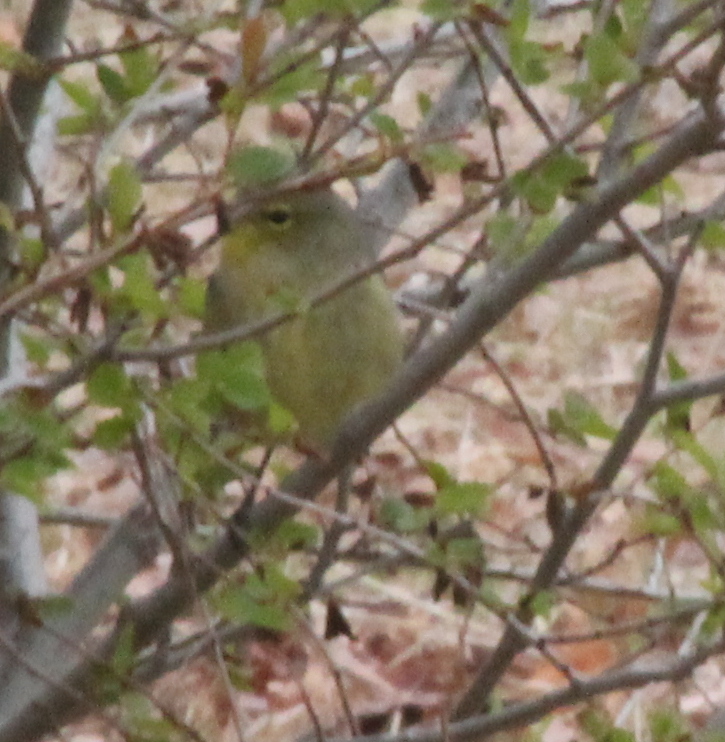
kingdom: Animalia
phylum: Chordata
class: Aves
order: Passeriformes
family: Parulidae
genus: Leiothlypis
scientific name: Leiothlypis celata
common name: Orange-crowned warbler
